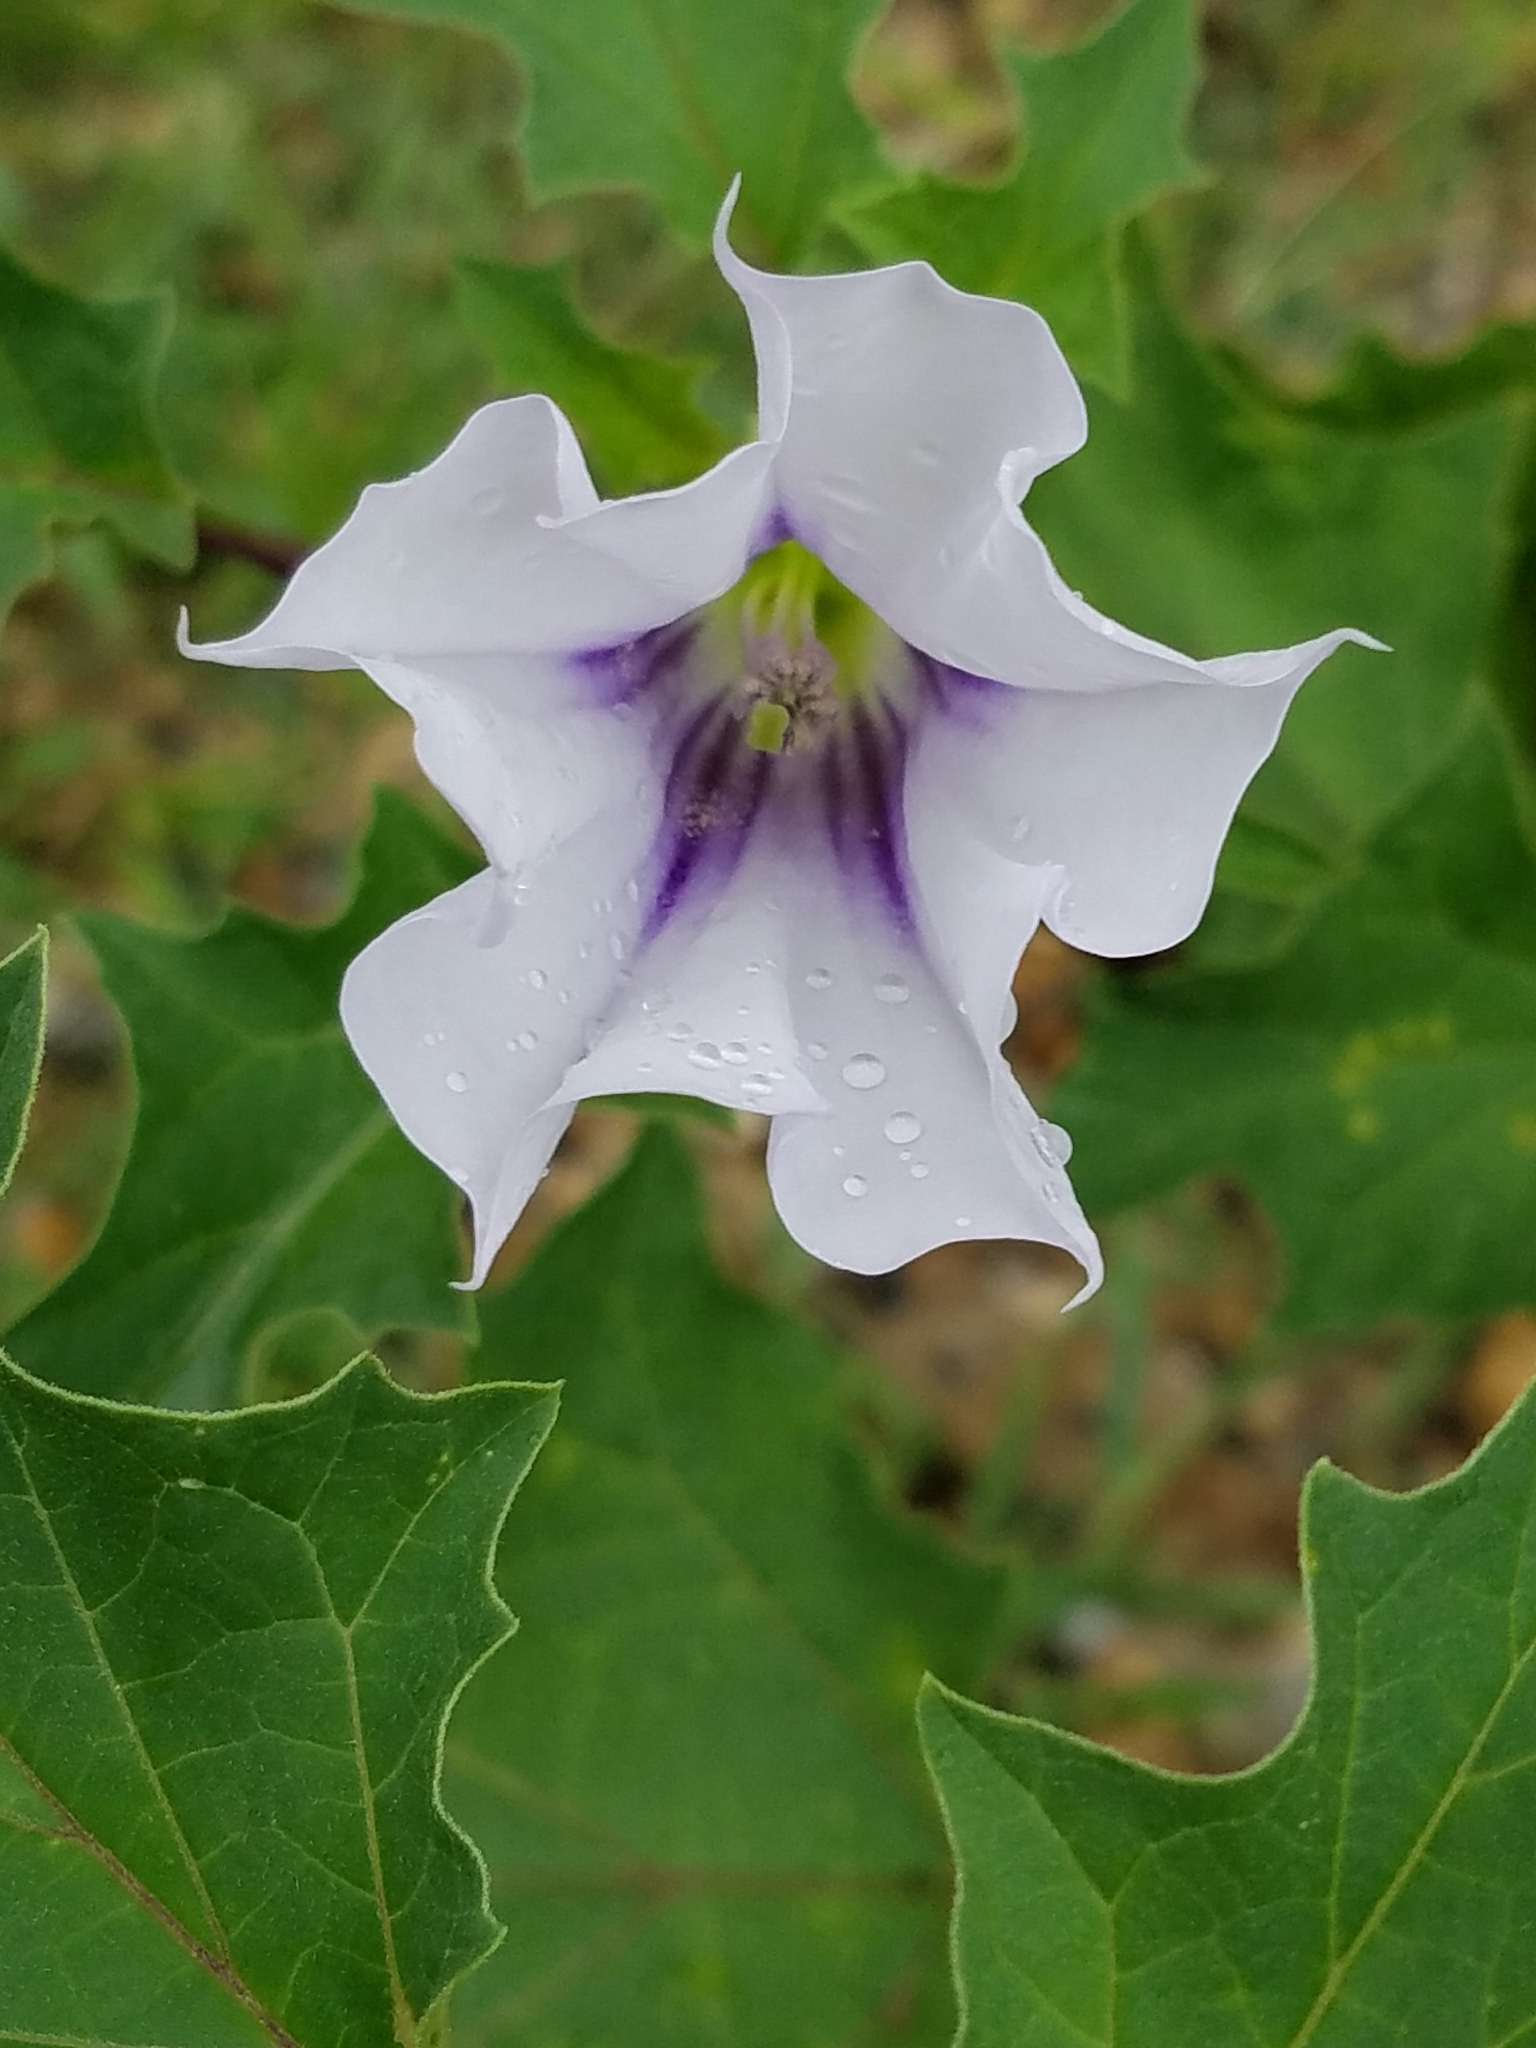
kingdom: Plantae
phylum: Tracheophyta
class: Magnoliopsida
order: Solanales
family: Solanaceae
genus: Datura
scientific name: Datura stramonium
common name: Thorn-apple
